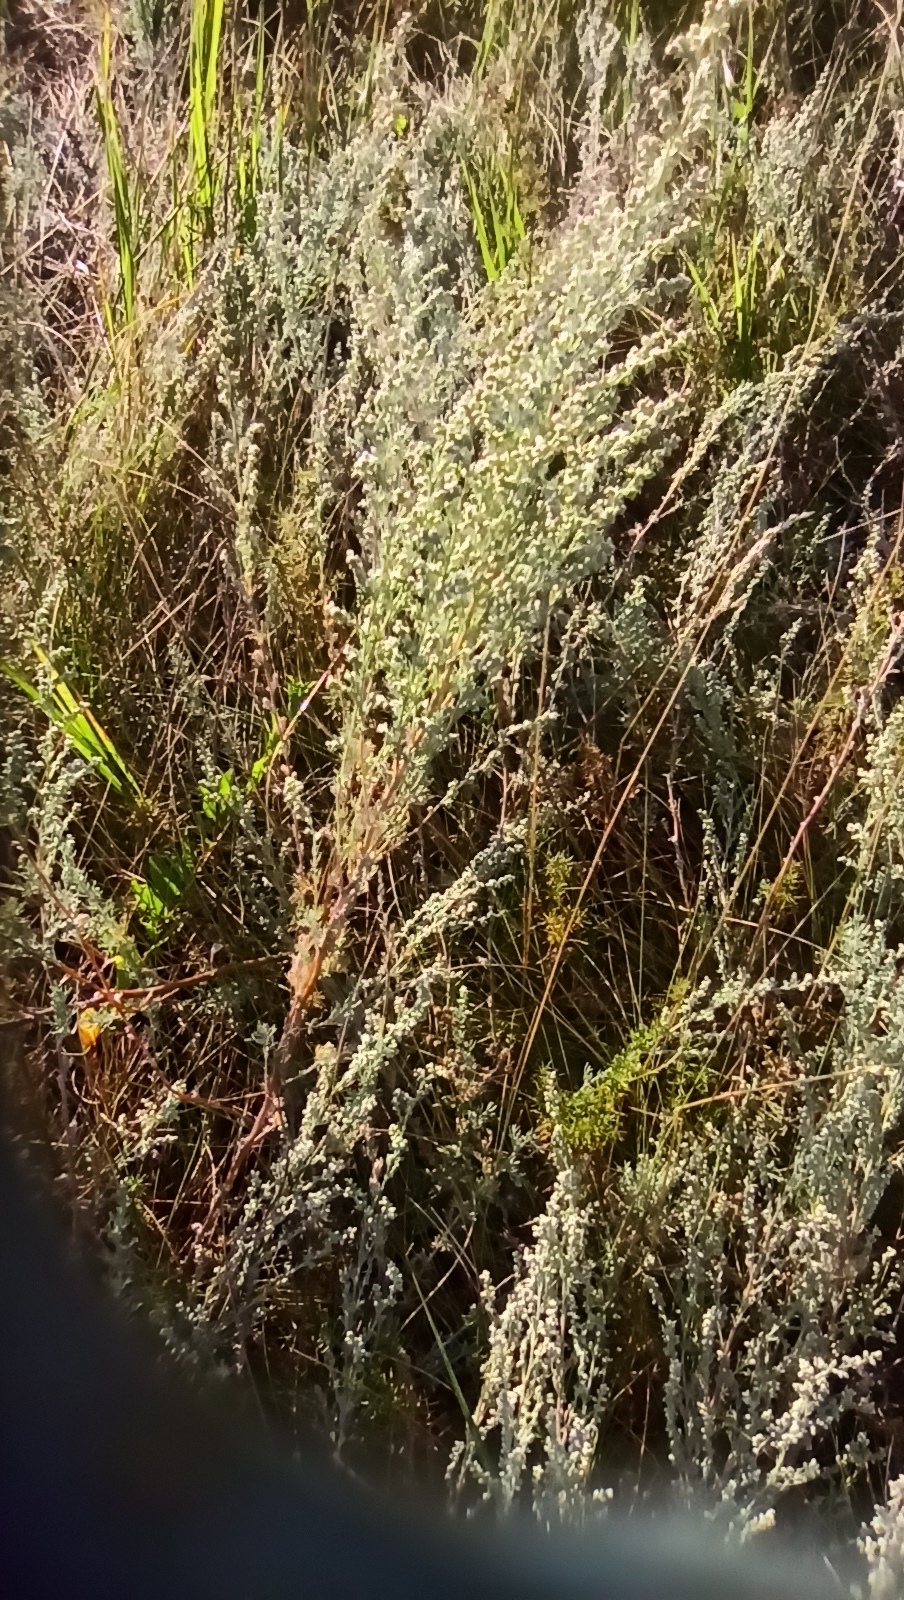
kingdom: Plantae
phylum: Tracheophyta
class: Magnoliopsida
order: Asterales
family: Asteraceae
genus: Artemisia
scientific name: Artemisia austriaca
